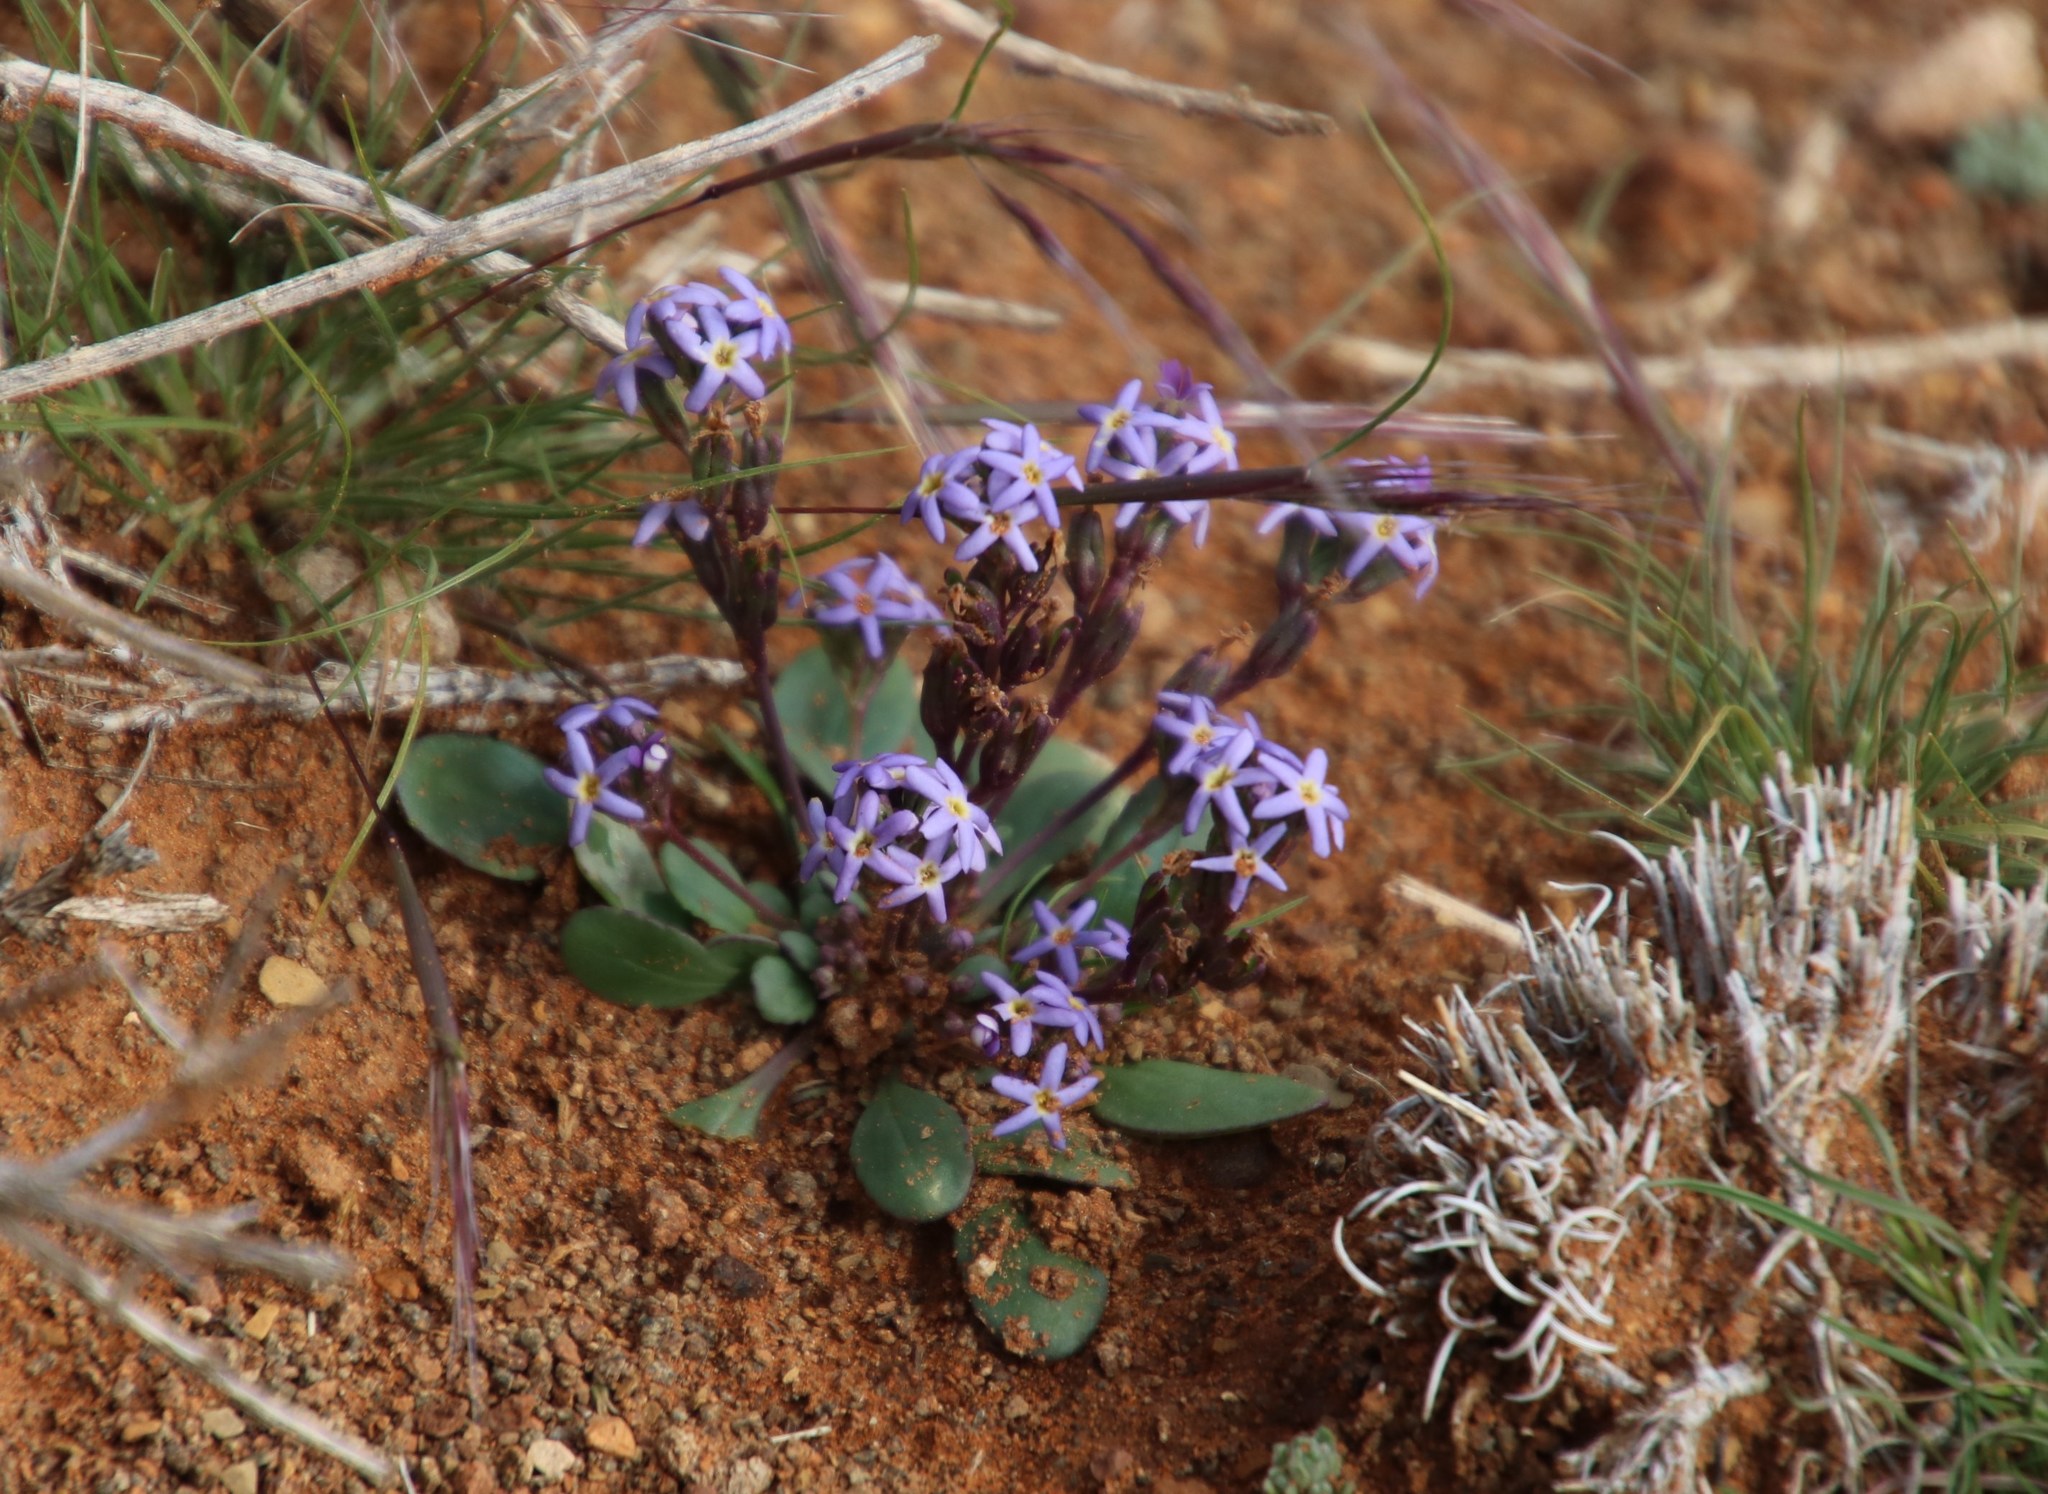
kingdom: Plantae
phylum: Tracheophyta
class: Magnoliopsida
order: Lamiales
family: Scrophulariaceae
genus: Manulea
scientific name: Manulea fragrans
